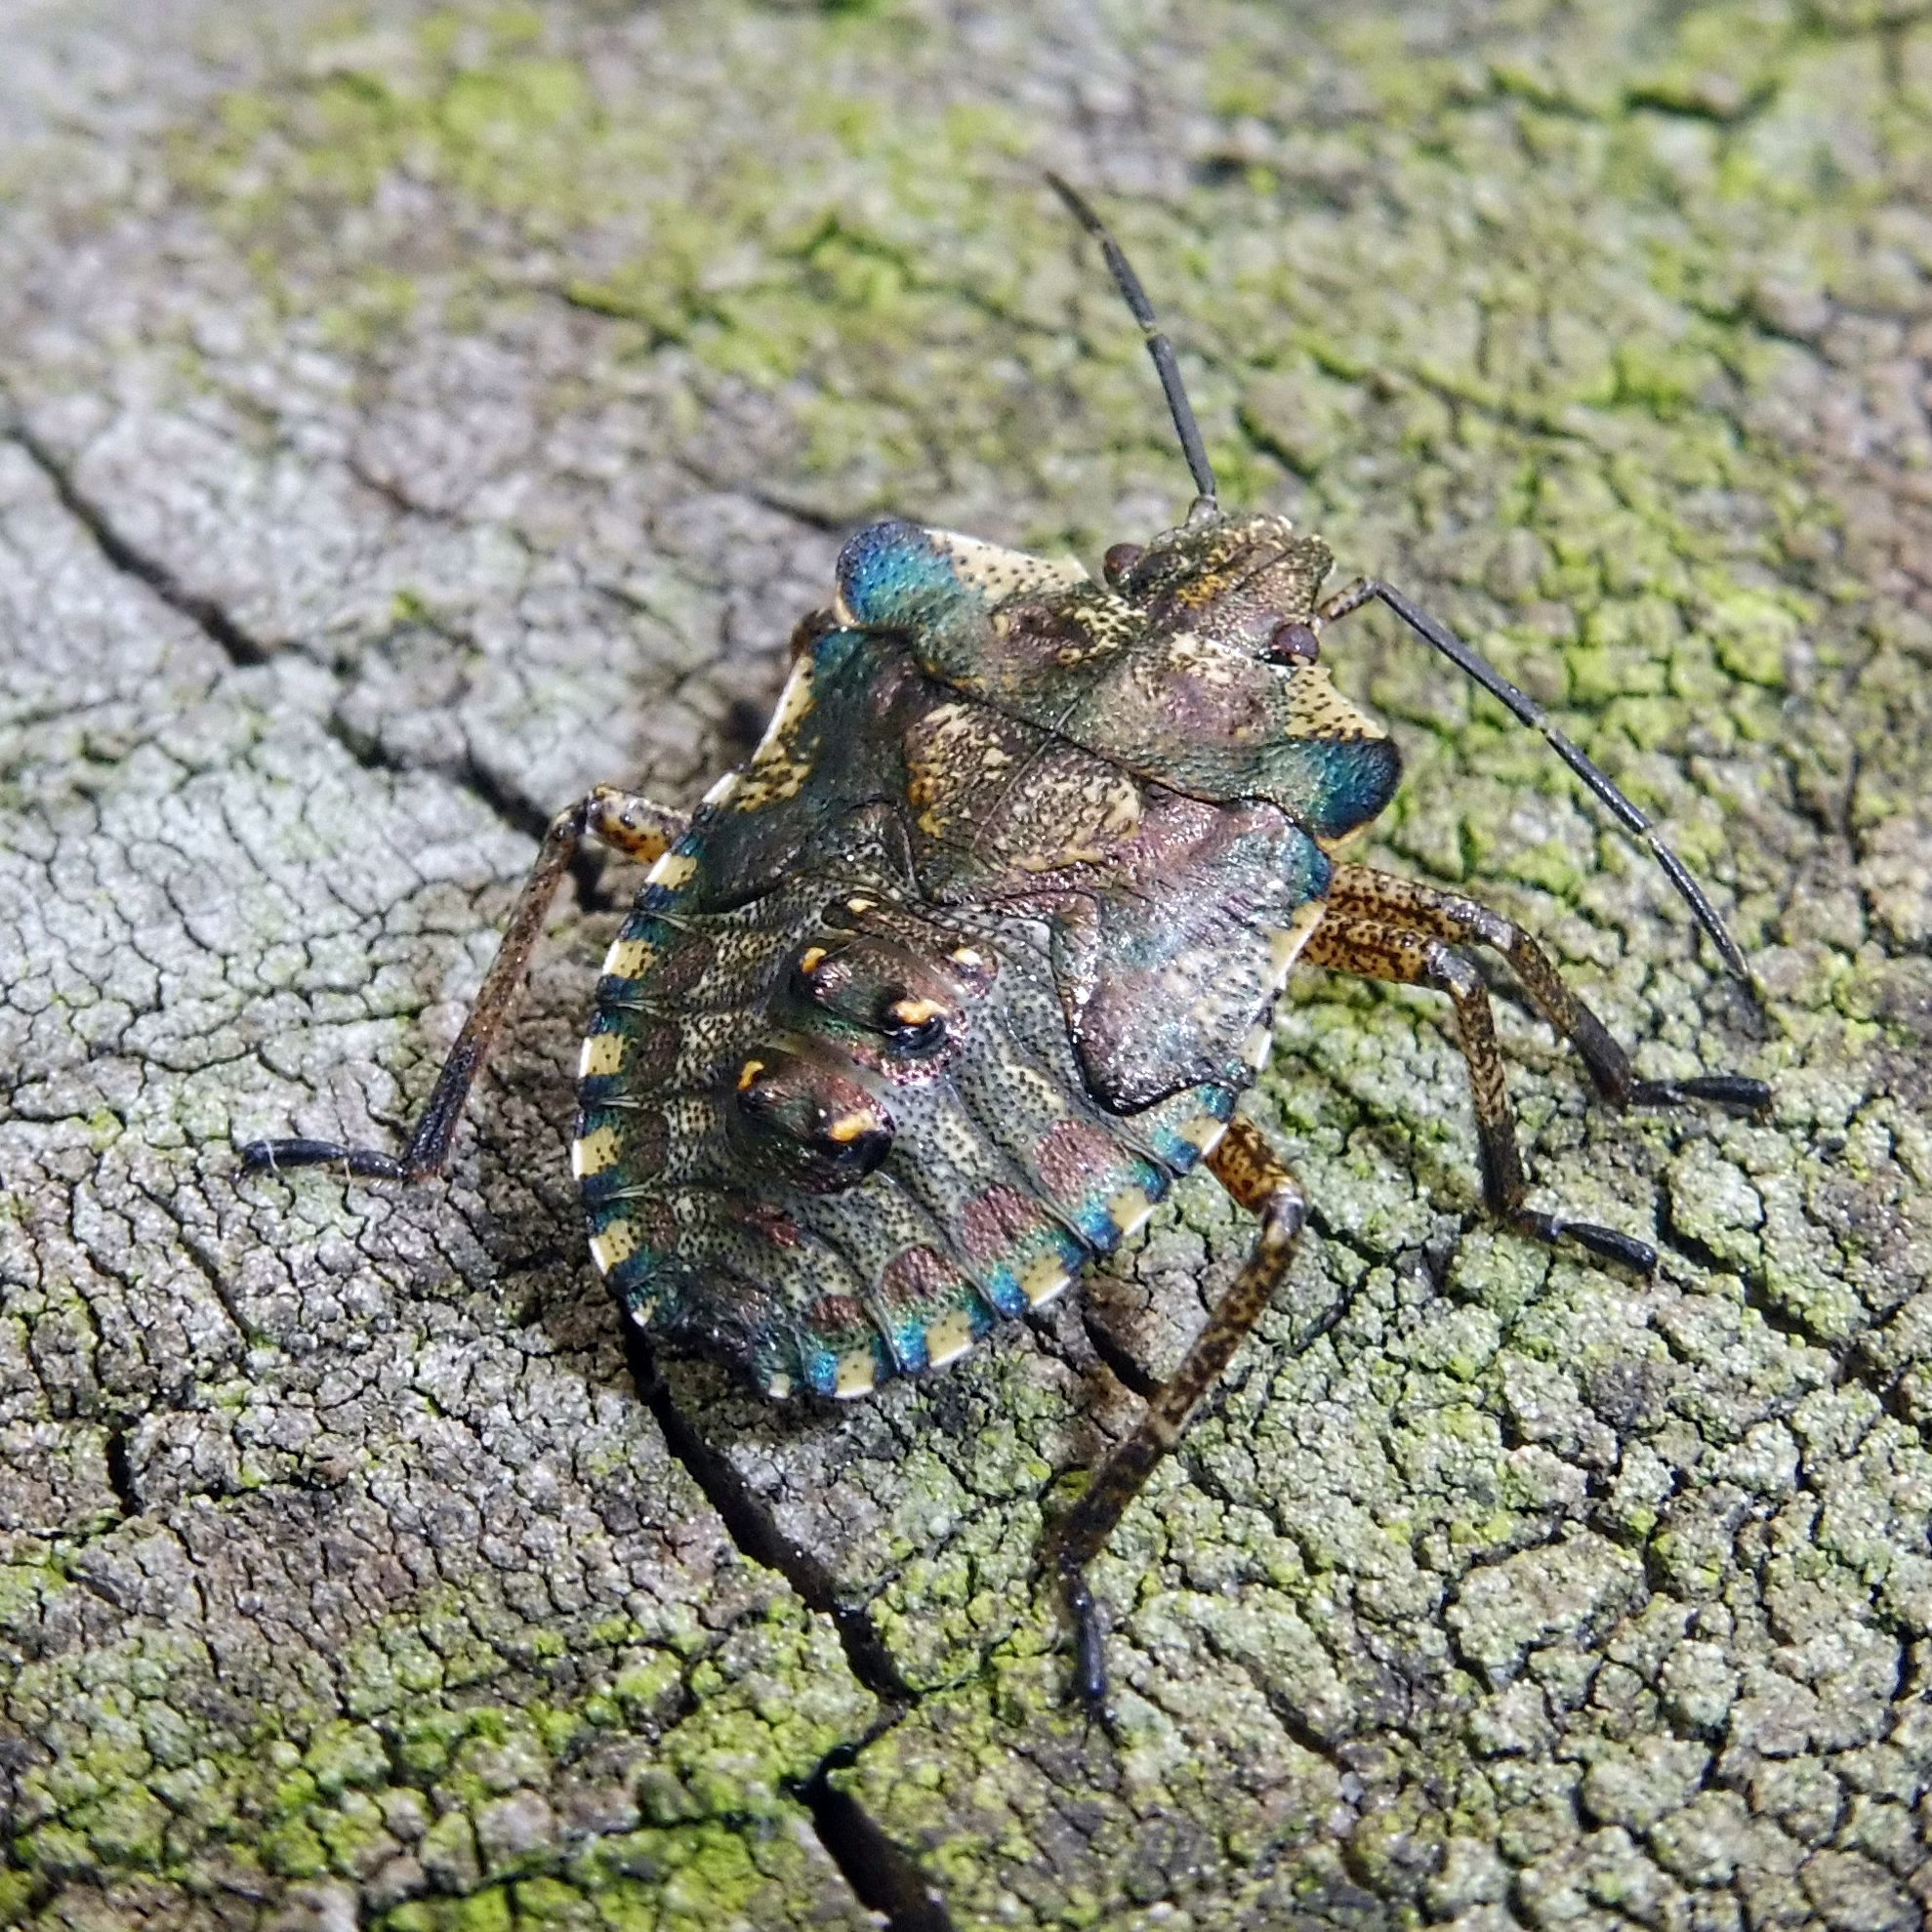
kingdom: Animalia
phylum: Arthropoda
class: Insecta
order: Hemiptera
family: Pentatomidae
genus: Pentatoma
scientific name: Pentatoma rufipes
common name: Forest bug
